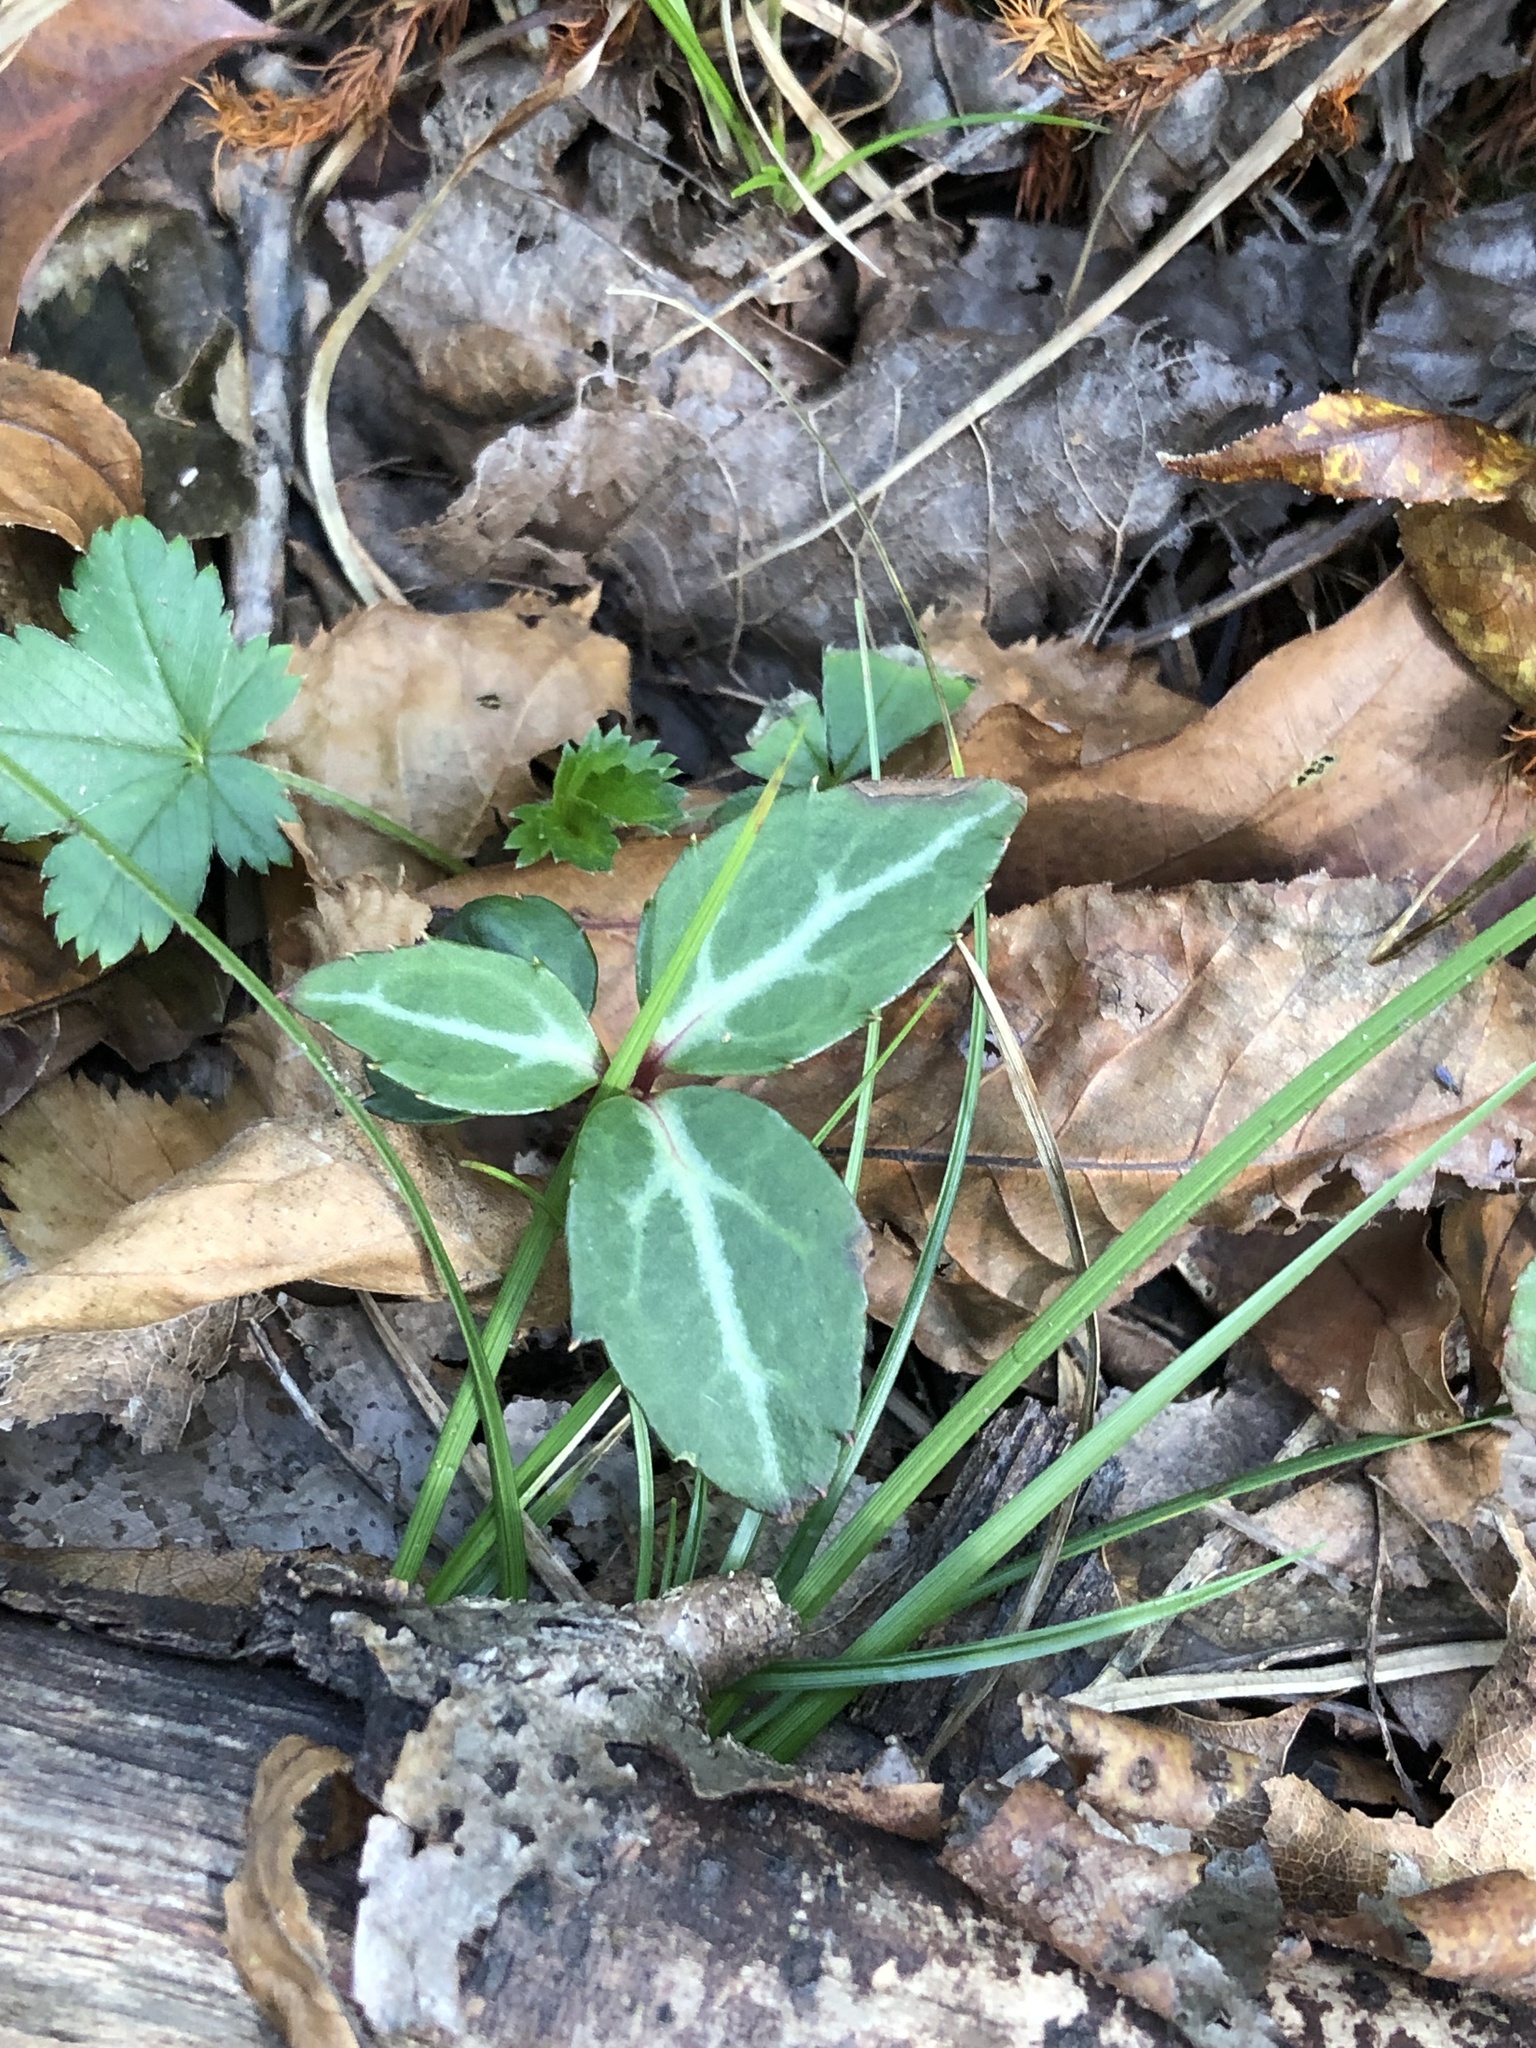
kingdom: Plantae
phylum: Tracheophyta
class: Magnoliopsida
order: Ericales
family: Ericaceae
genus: Chimaphila
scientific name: Chimaphila maculata
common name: Spotted pipsissewa
